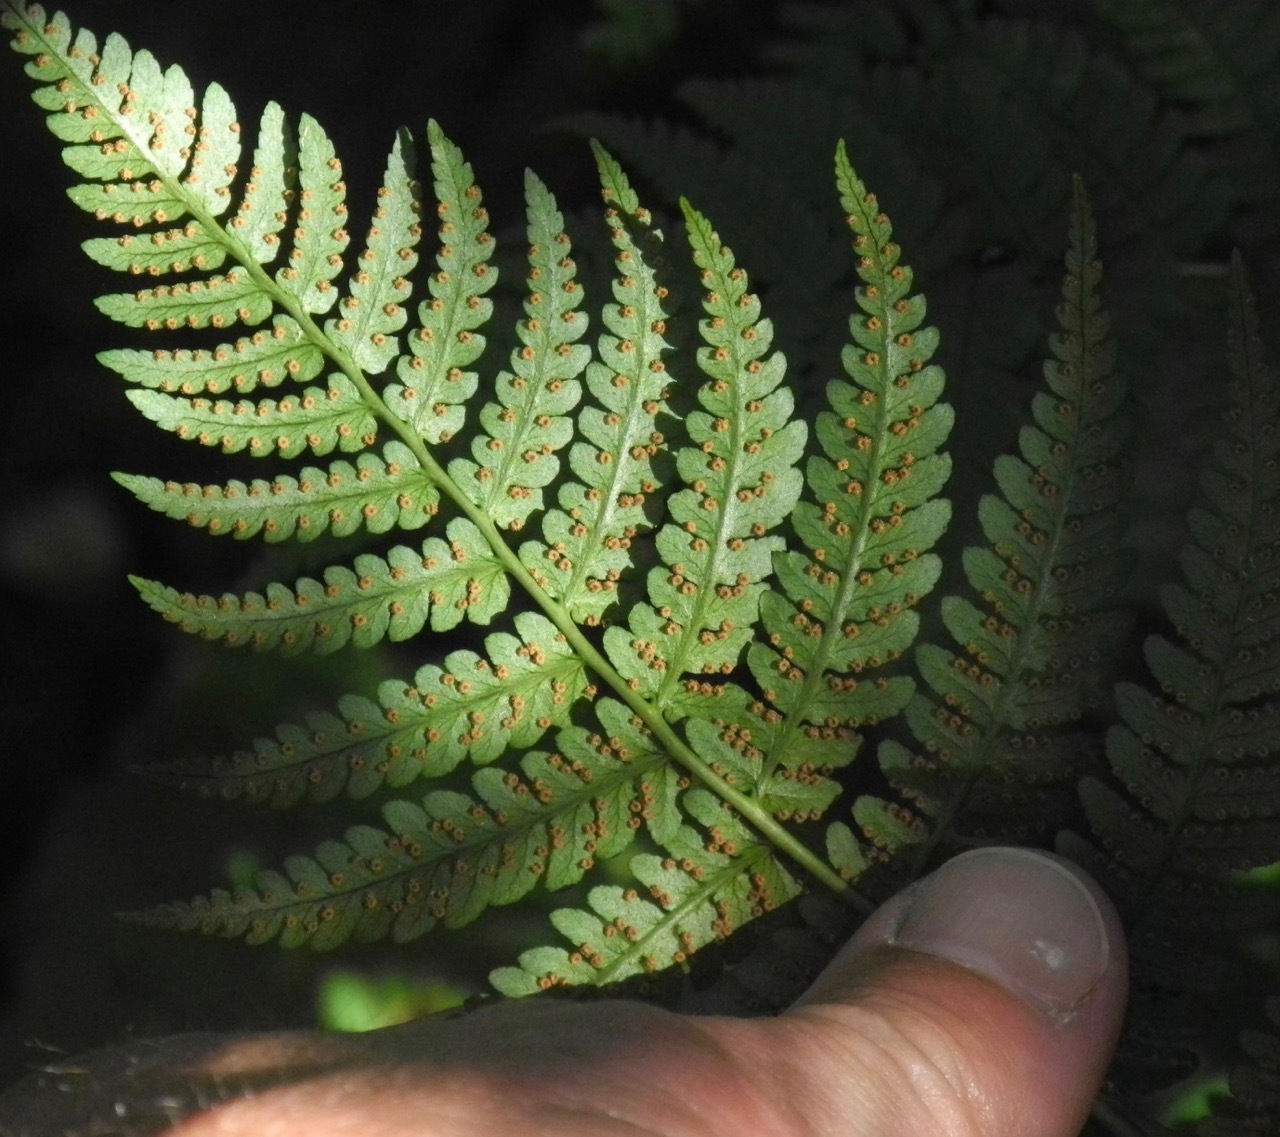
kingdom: Plantae
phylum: Tracheophyta
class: Polypodiopsida
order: Polypodiales
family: Dryopteridaceae
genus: Dryopteris
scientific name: Dryopteris marginalis
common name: Marginal wood fern
